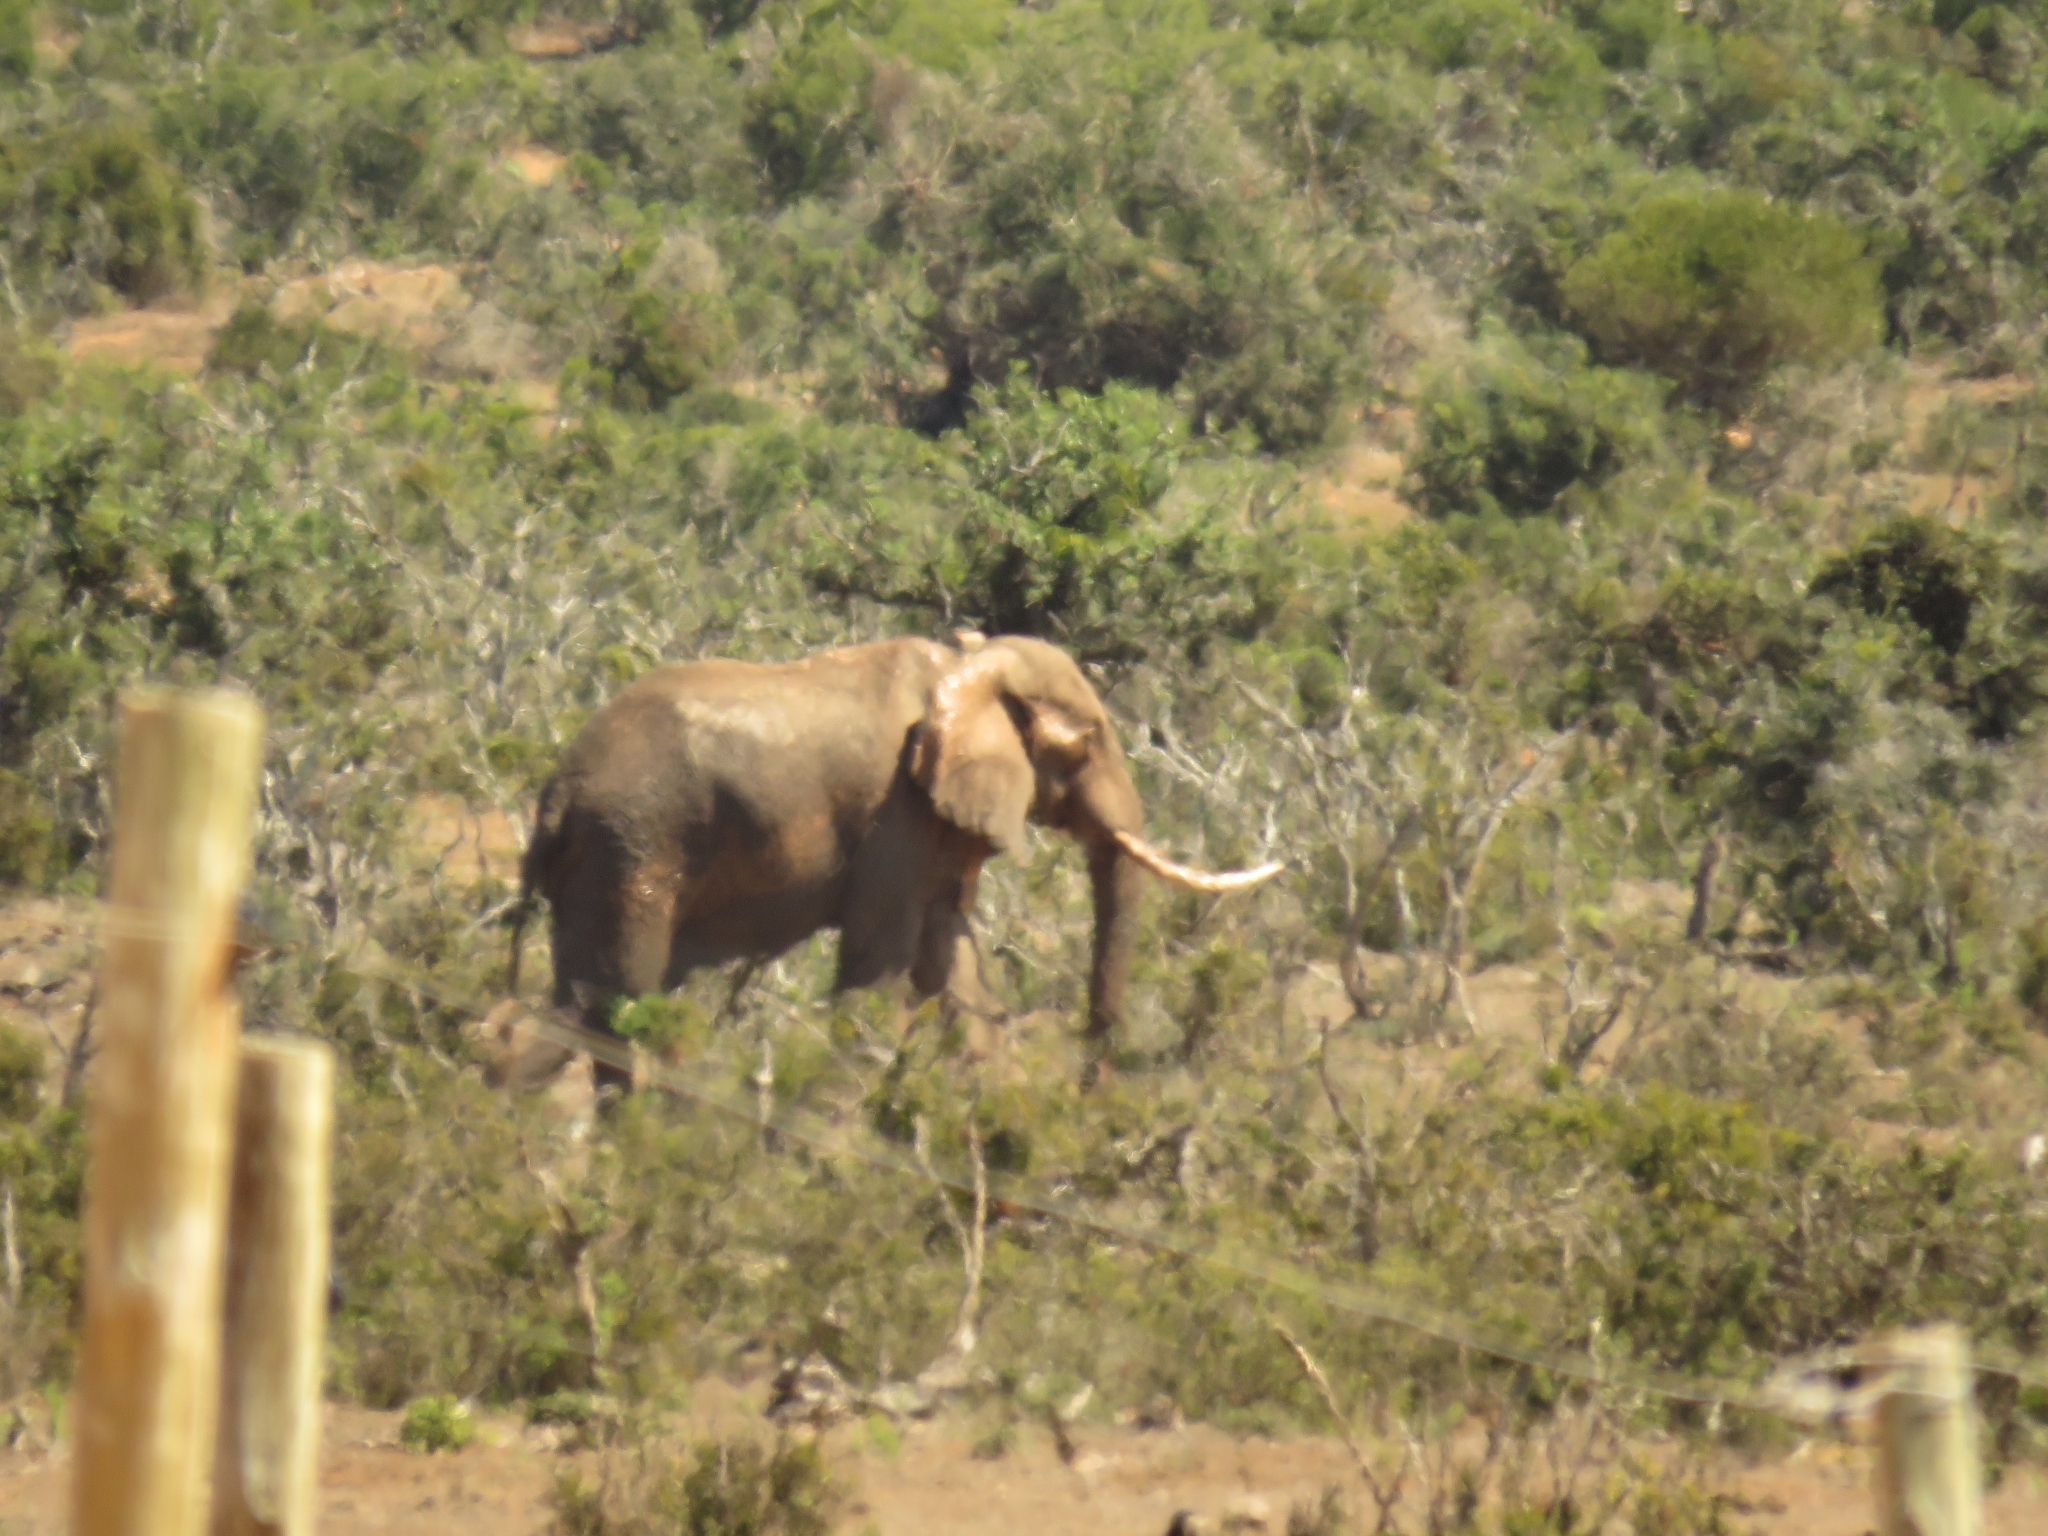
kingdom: Animalia
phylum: Chordata
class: Mammalia
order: Proboscidea
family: Elephantidae
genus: Loxodonta
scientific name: Loxodonta africana
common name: African elephant
